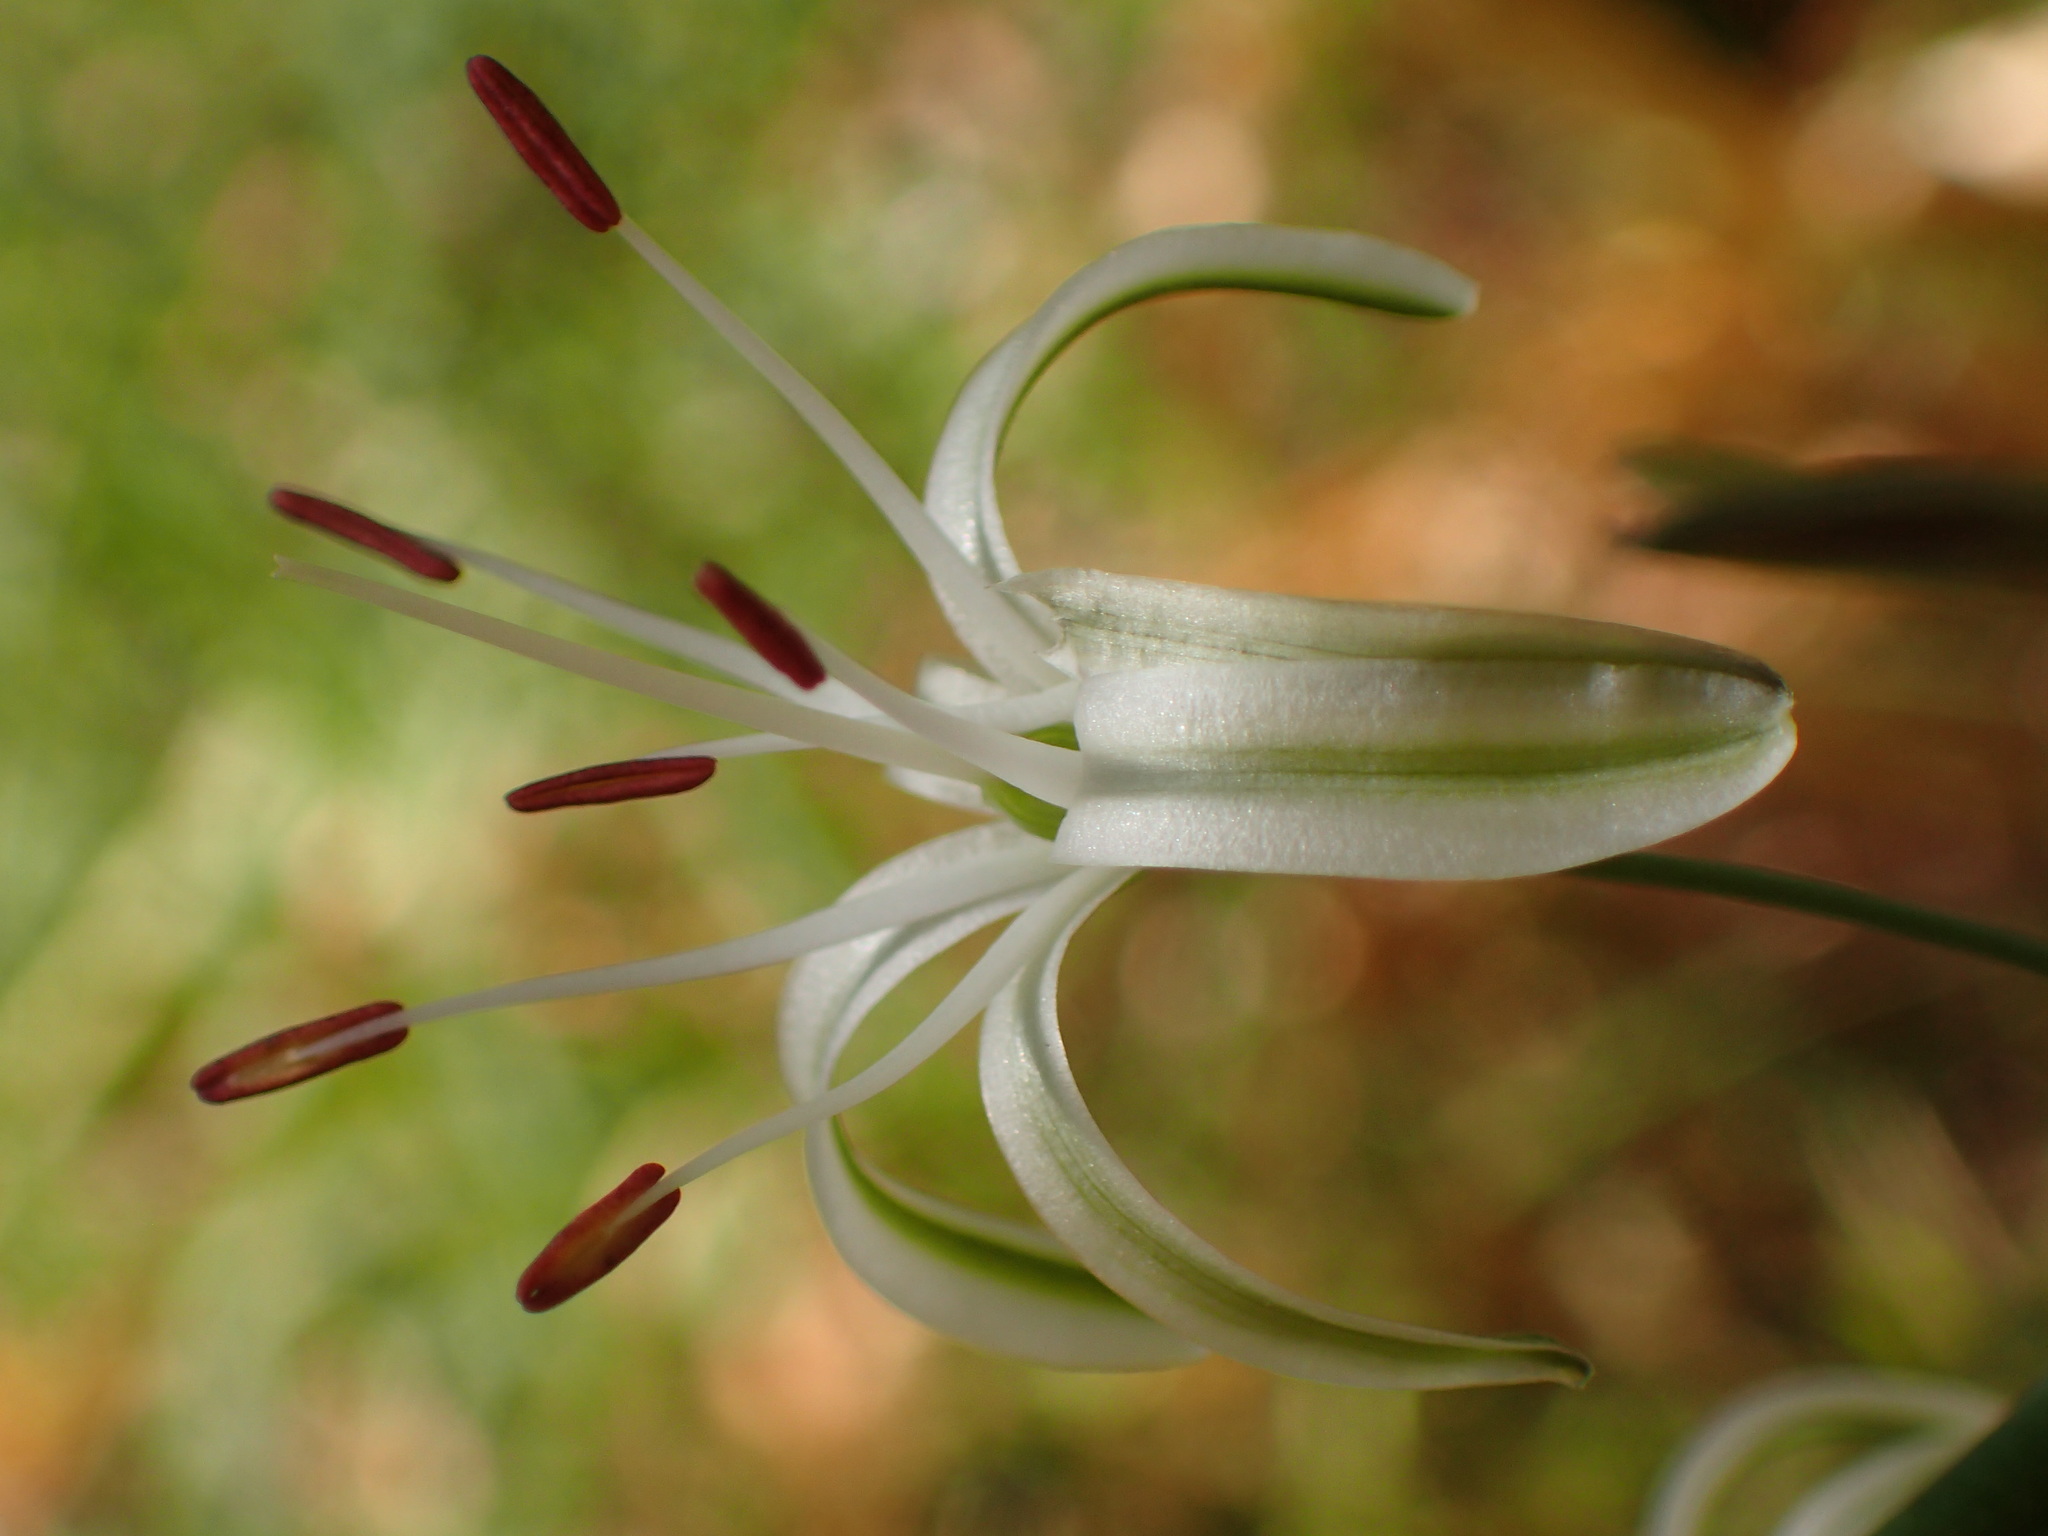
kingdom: Plantae
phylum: Tracheophyta
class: Liliopsida
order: Asparagales
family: Asparagaceae
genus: Chlorogalum
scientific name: Chlorogalum pomeridianum
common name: Amole
